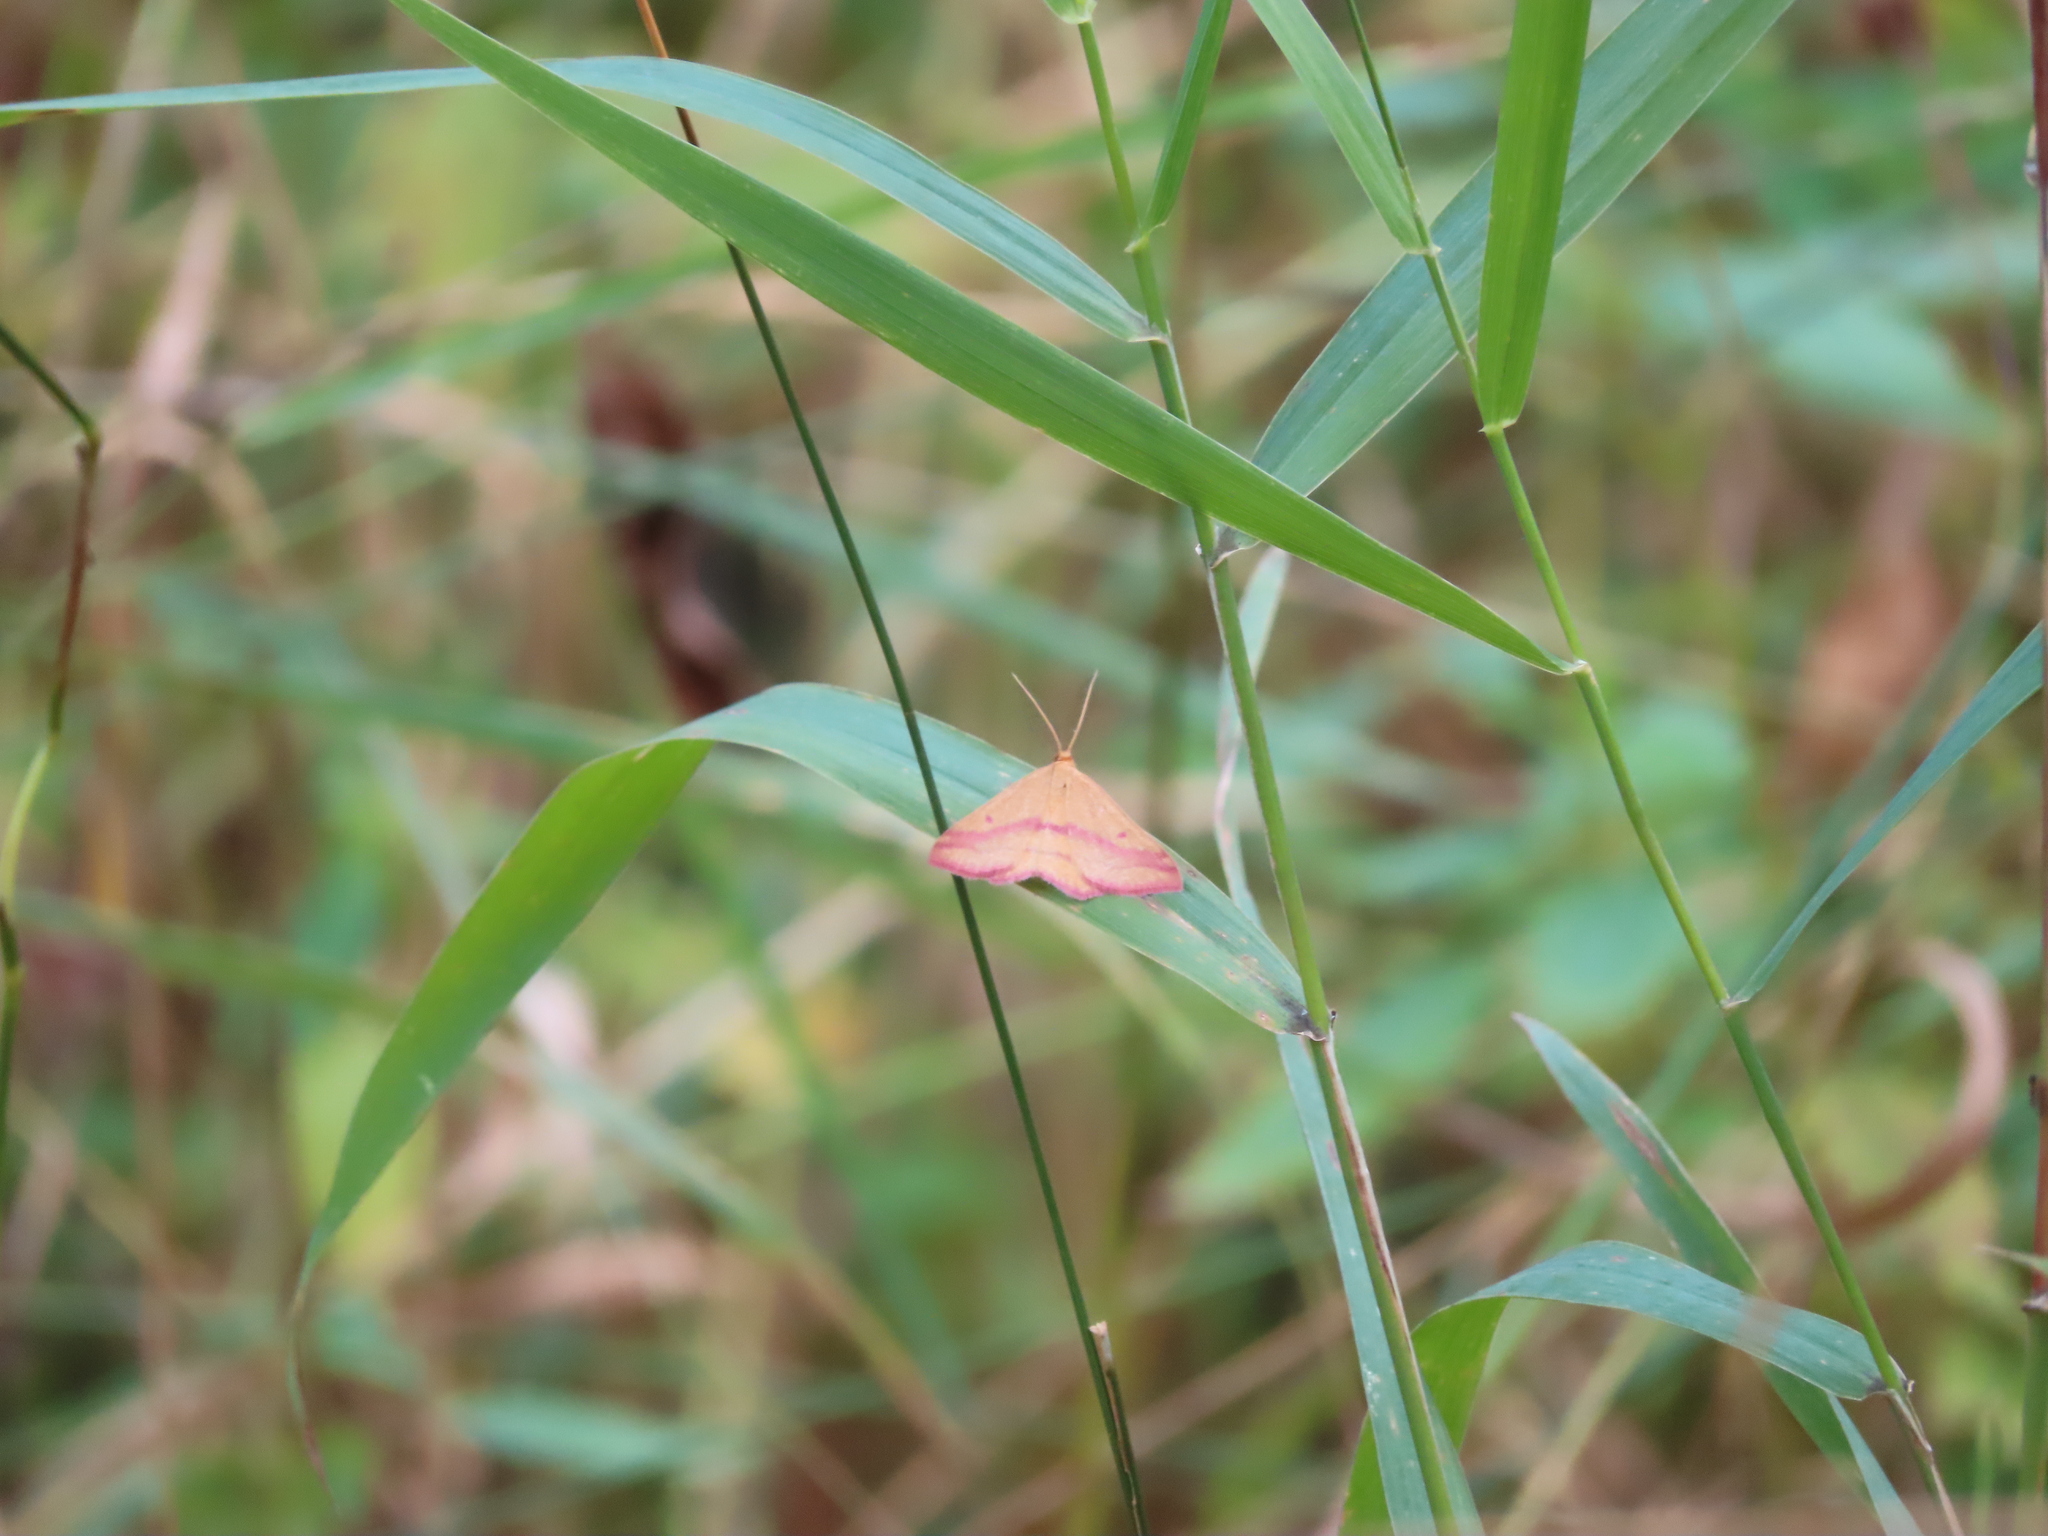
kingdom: Animalia
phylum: Arthropoda
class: Insecta
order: Lepidoptera
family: Geometridae
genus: Haematopis
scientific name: Haematopis grataria
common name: Chickweed geometer
